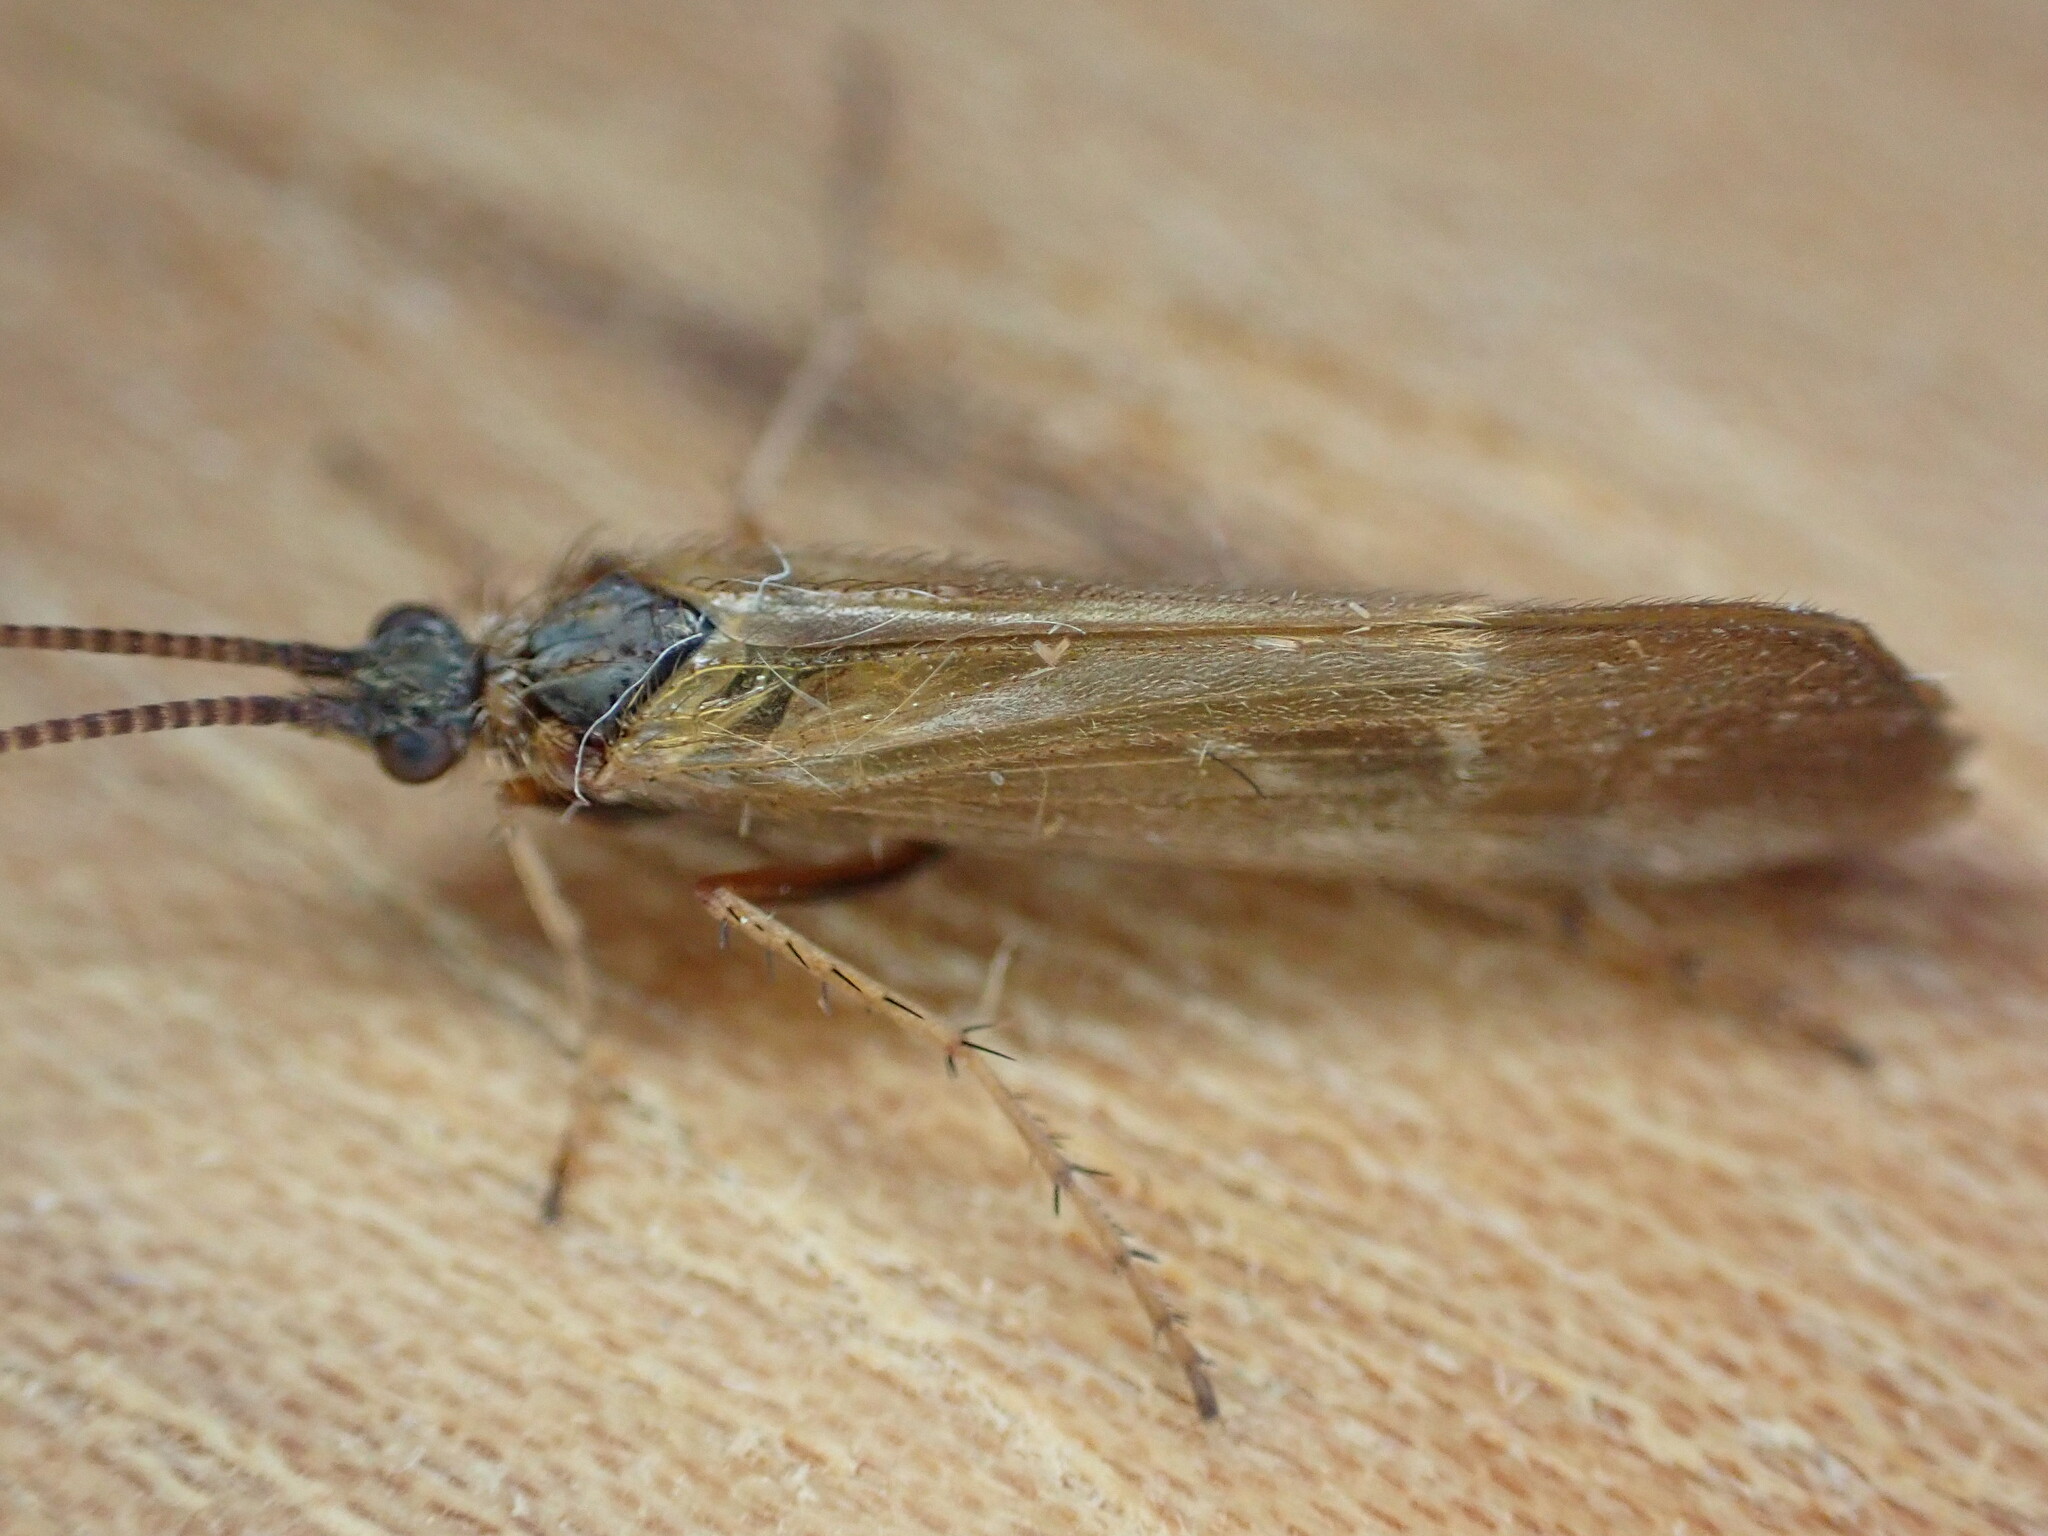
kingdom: Animalia
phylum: Arthropoda
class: Insecta
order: Trichoptera
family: Limnephilidae
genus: Limnephilus
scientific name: Limnephilus auricula
